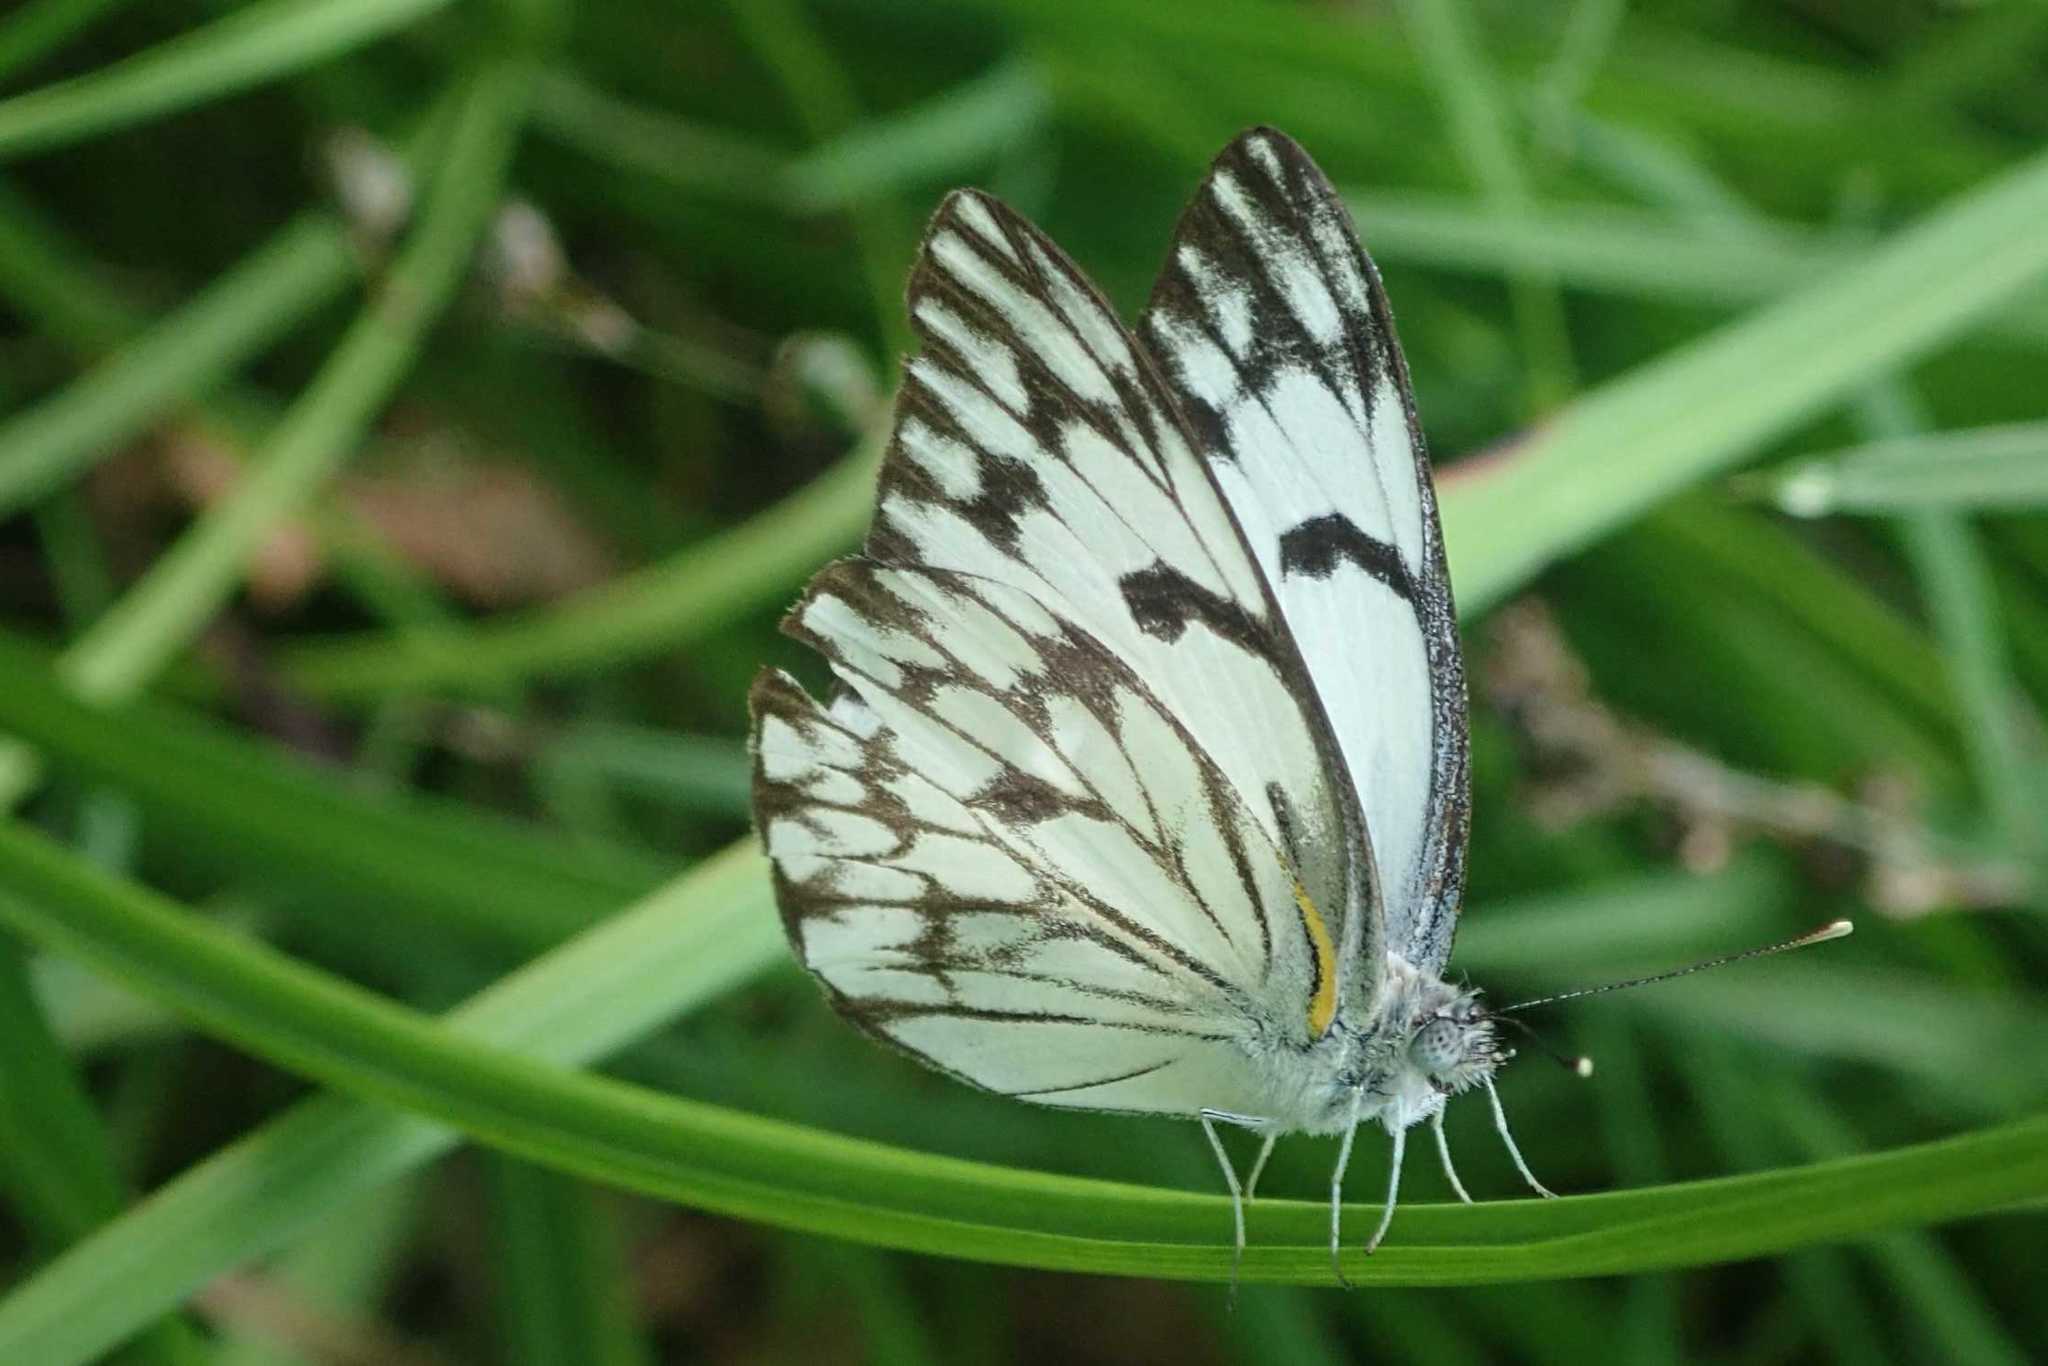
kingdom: Animalia
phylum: Arthropoda
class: Insecta
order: Lepidoptera
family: Pieridae
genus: Belenois
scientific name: Belenois gidica
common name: Pointed caper white
